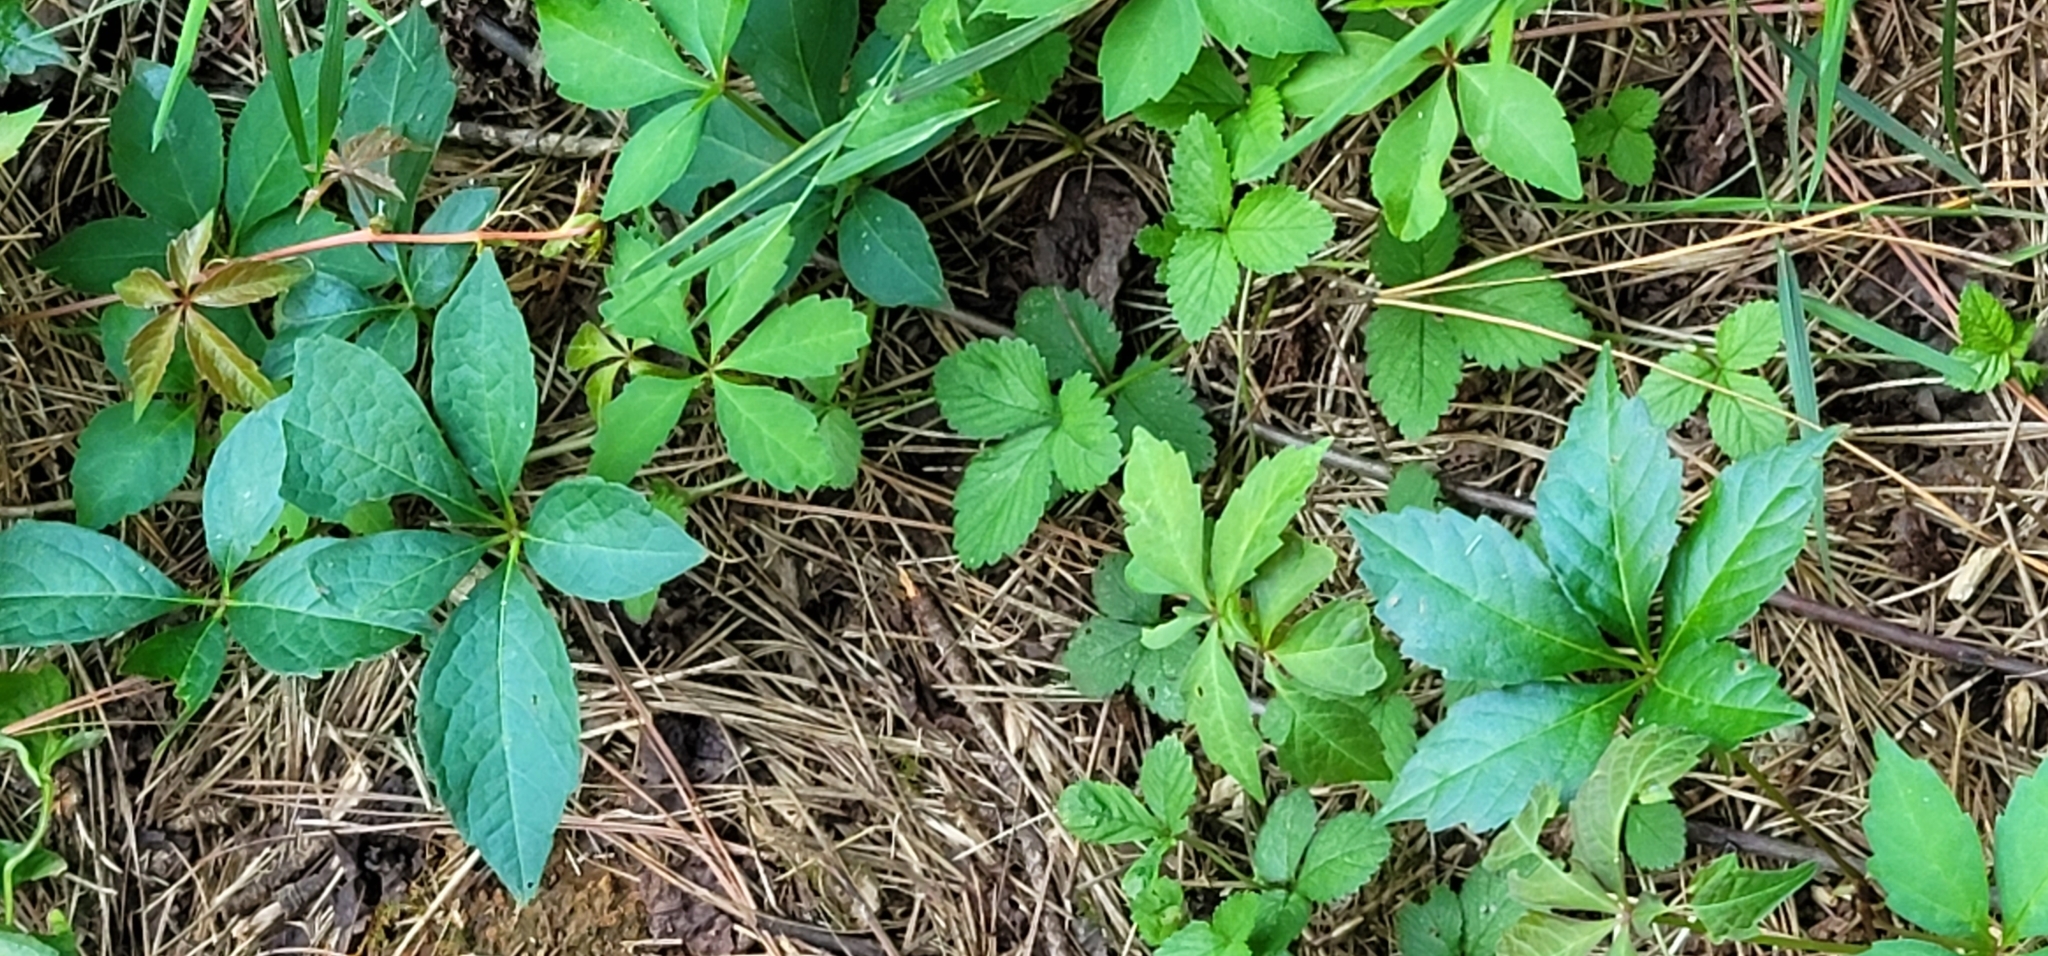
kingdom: Plantae
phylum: Tracheophyta
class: Magnoliopsida
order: Vitales
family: Vitaceae
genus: Parthenocissus
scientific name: Parthenocissus quinquefolia
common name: Virginia-creeper
